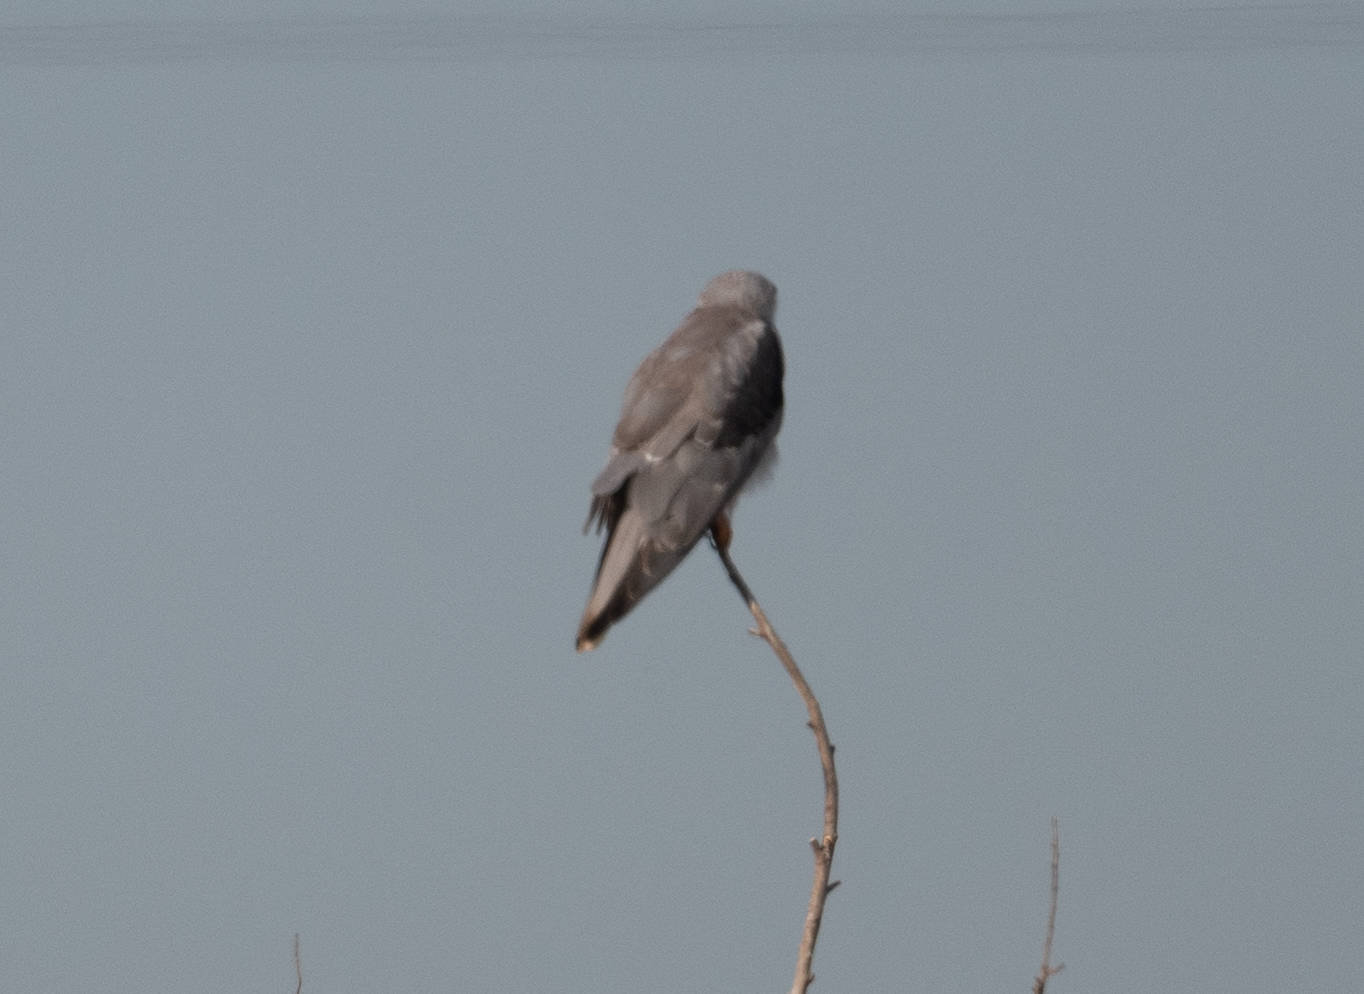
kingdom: Animalia
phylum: Chordata
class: Aves
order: Accipitriformes
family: Accipitridae
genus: Elanus
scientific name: Elanus leucurus
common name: White-tailed kite
